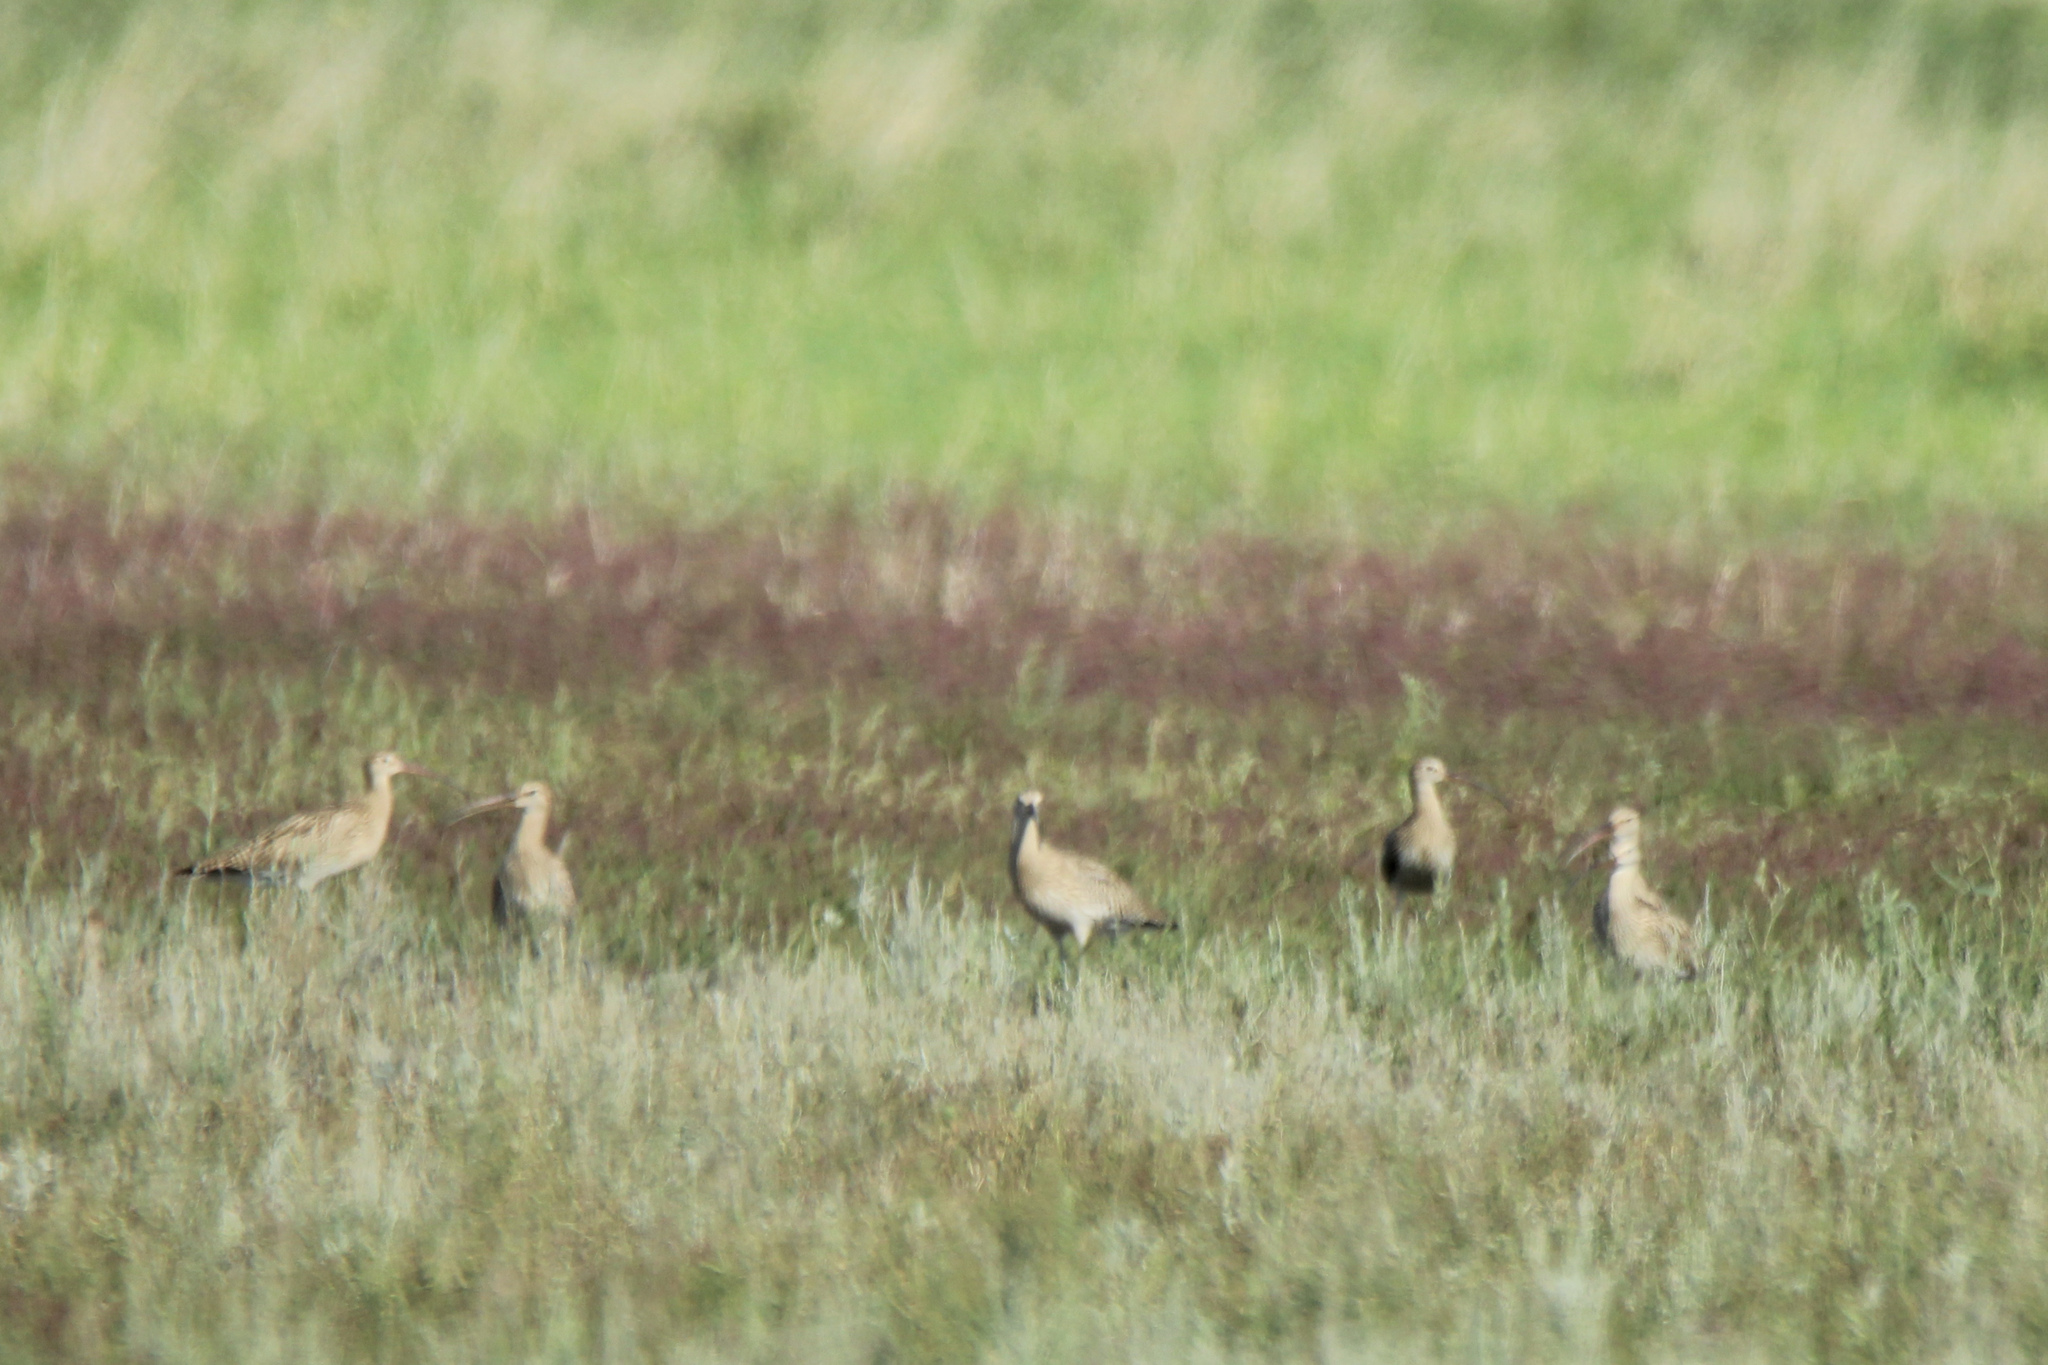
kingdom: Animalia
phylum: Chordata
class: Aves
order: Charadriiformes
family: Scolopacidae
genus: Numenius
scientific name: Numenius arquata
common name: Eurasian curlew
